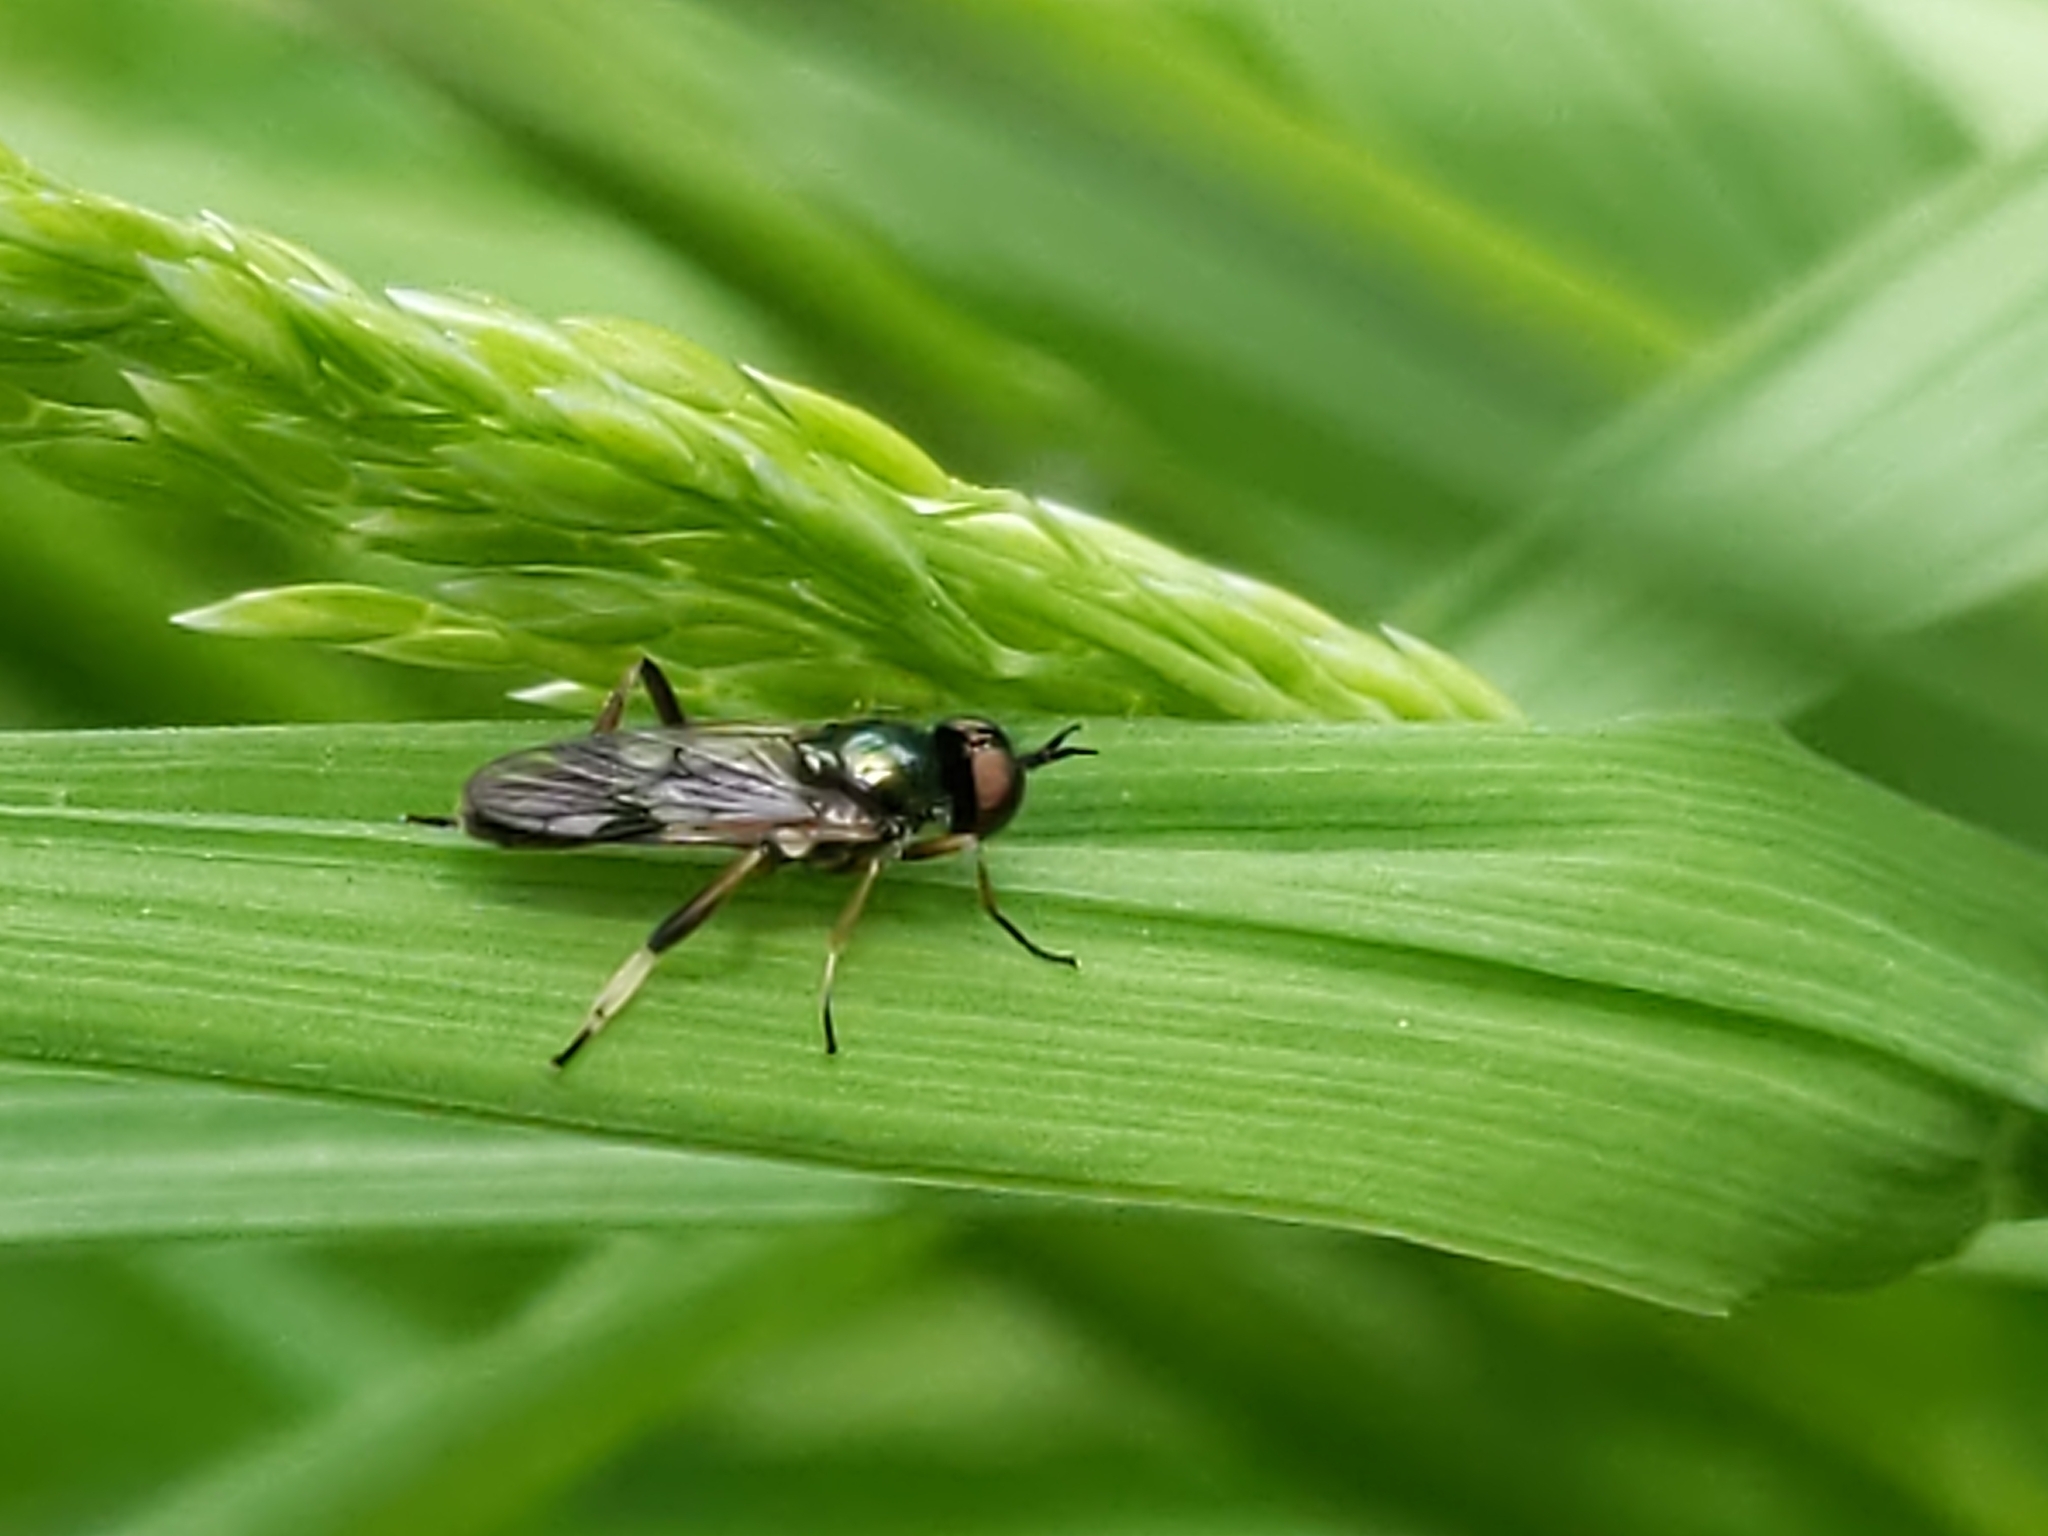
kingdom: Animalia
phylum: Arthropoda
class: Insecta
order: Diptera
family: Stratiomyidae
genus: Actina
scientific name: Actina viridis
